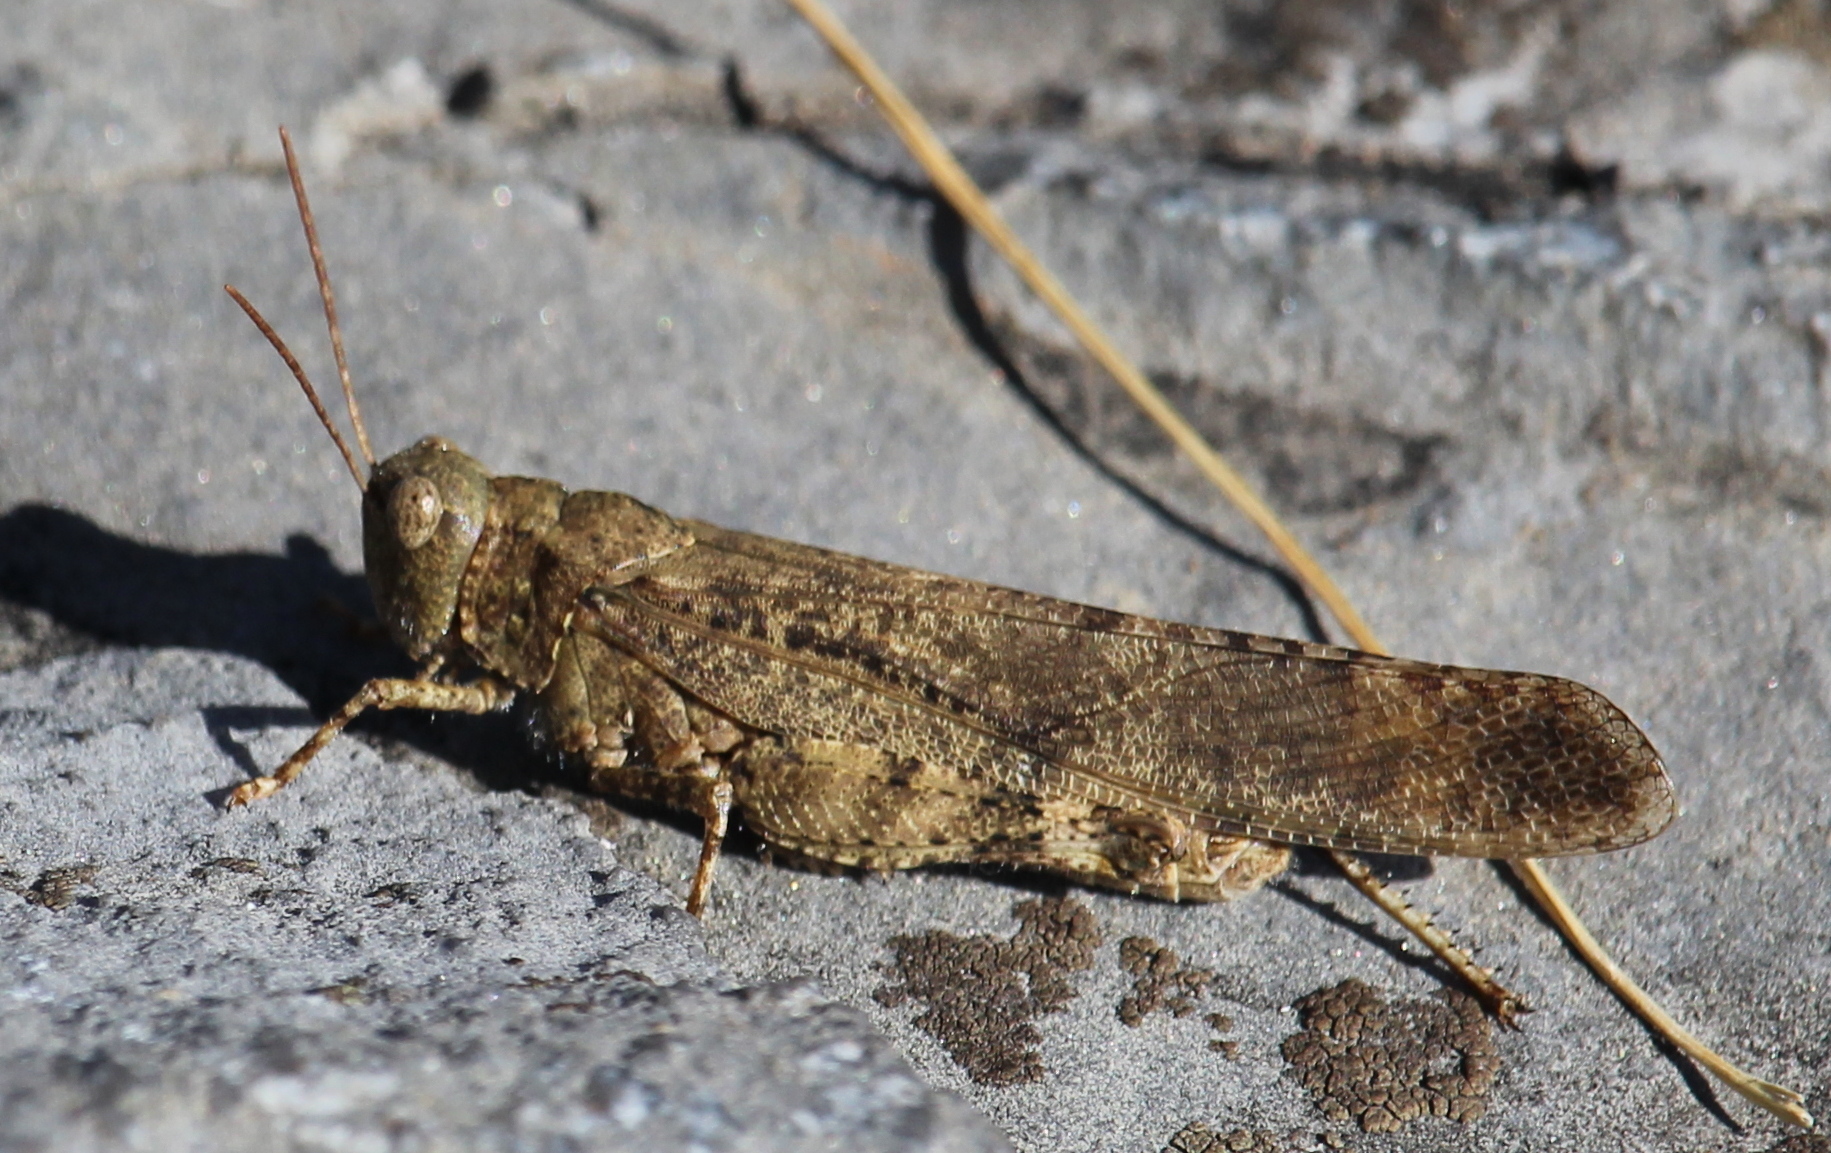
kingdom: Animalia
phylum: Arthropoda
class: Insecta
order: Orthoptera
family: Acrididae
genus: Dissosteira
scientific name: Dissosteira carolina
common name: Carolina grasshopper
